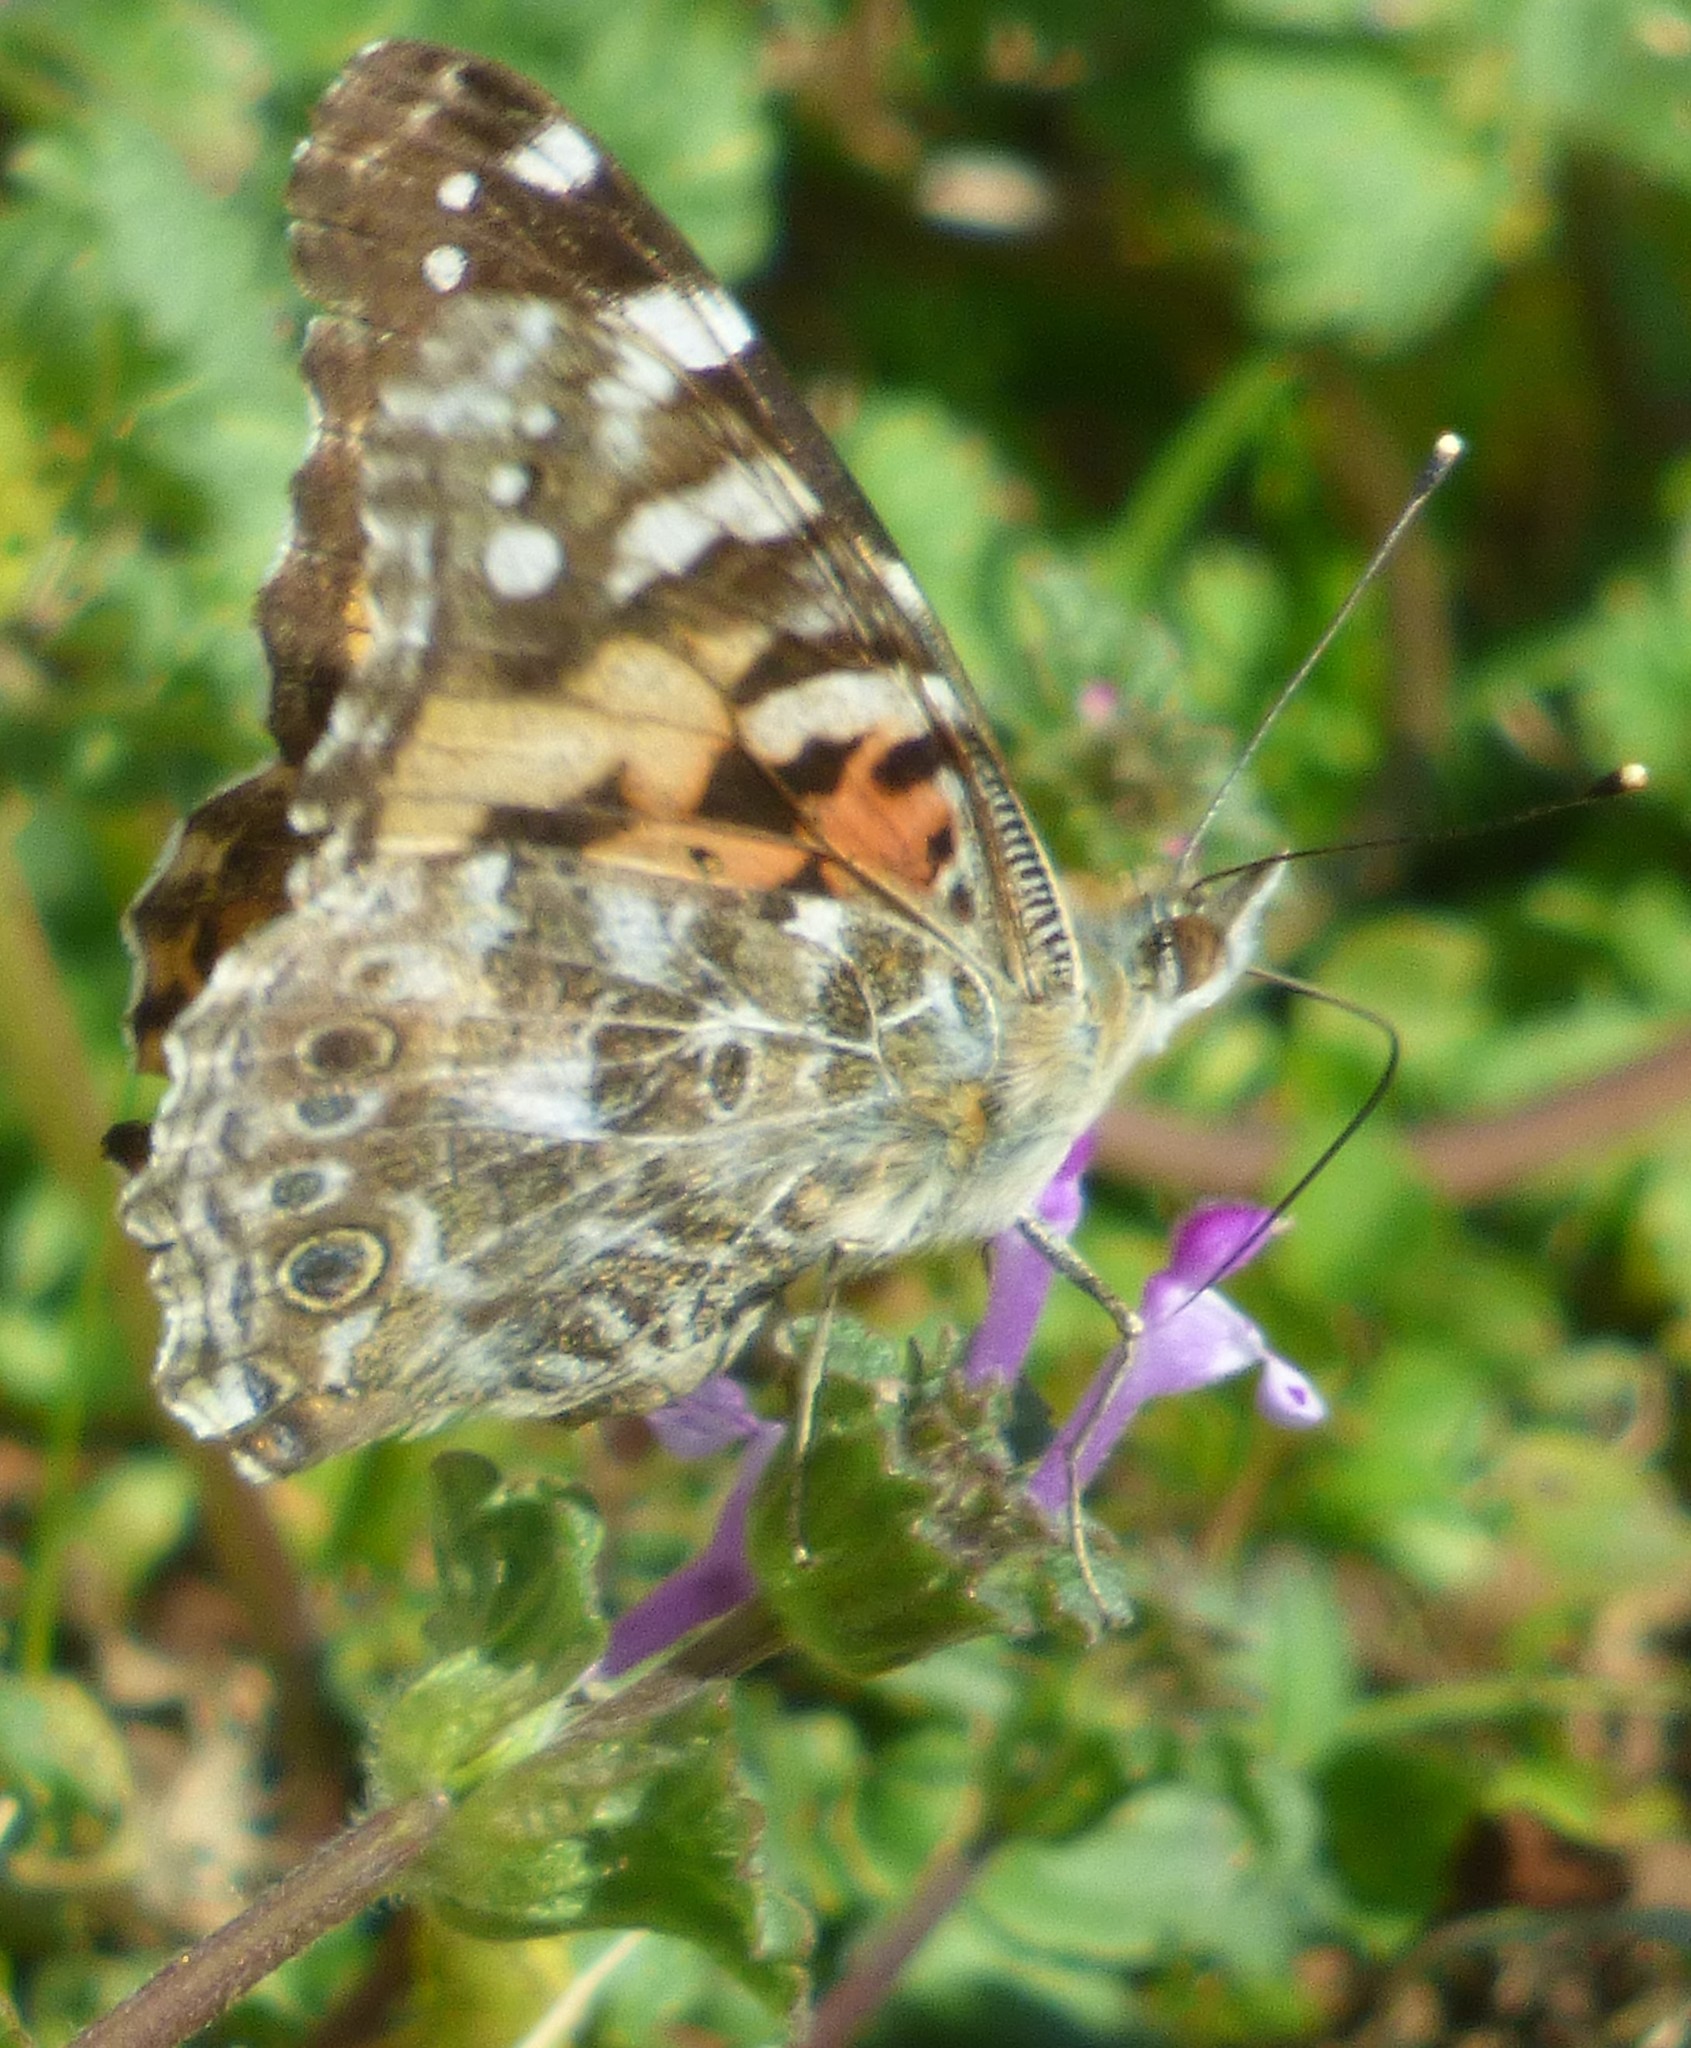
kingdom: Animalia
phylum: Arthropoda
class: Insecta
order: Lepidoptera
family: Nymphalidae
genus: Vanessa
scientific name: Vanessa cardui
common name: Painted lady
